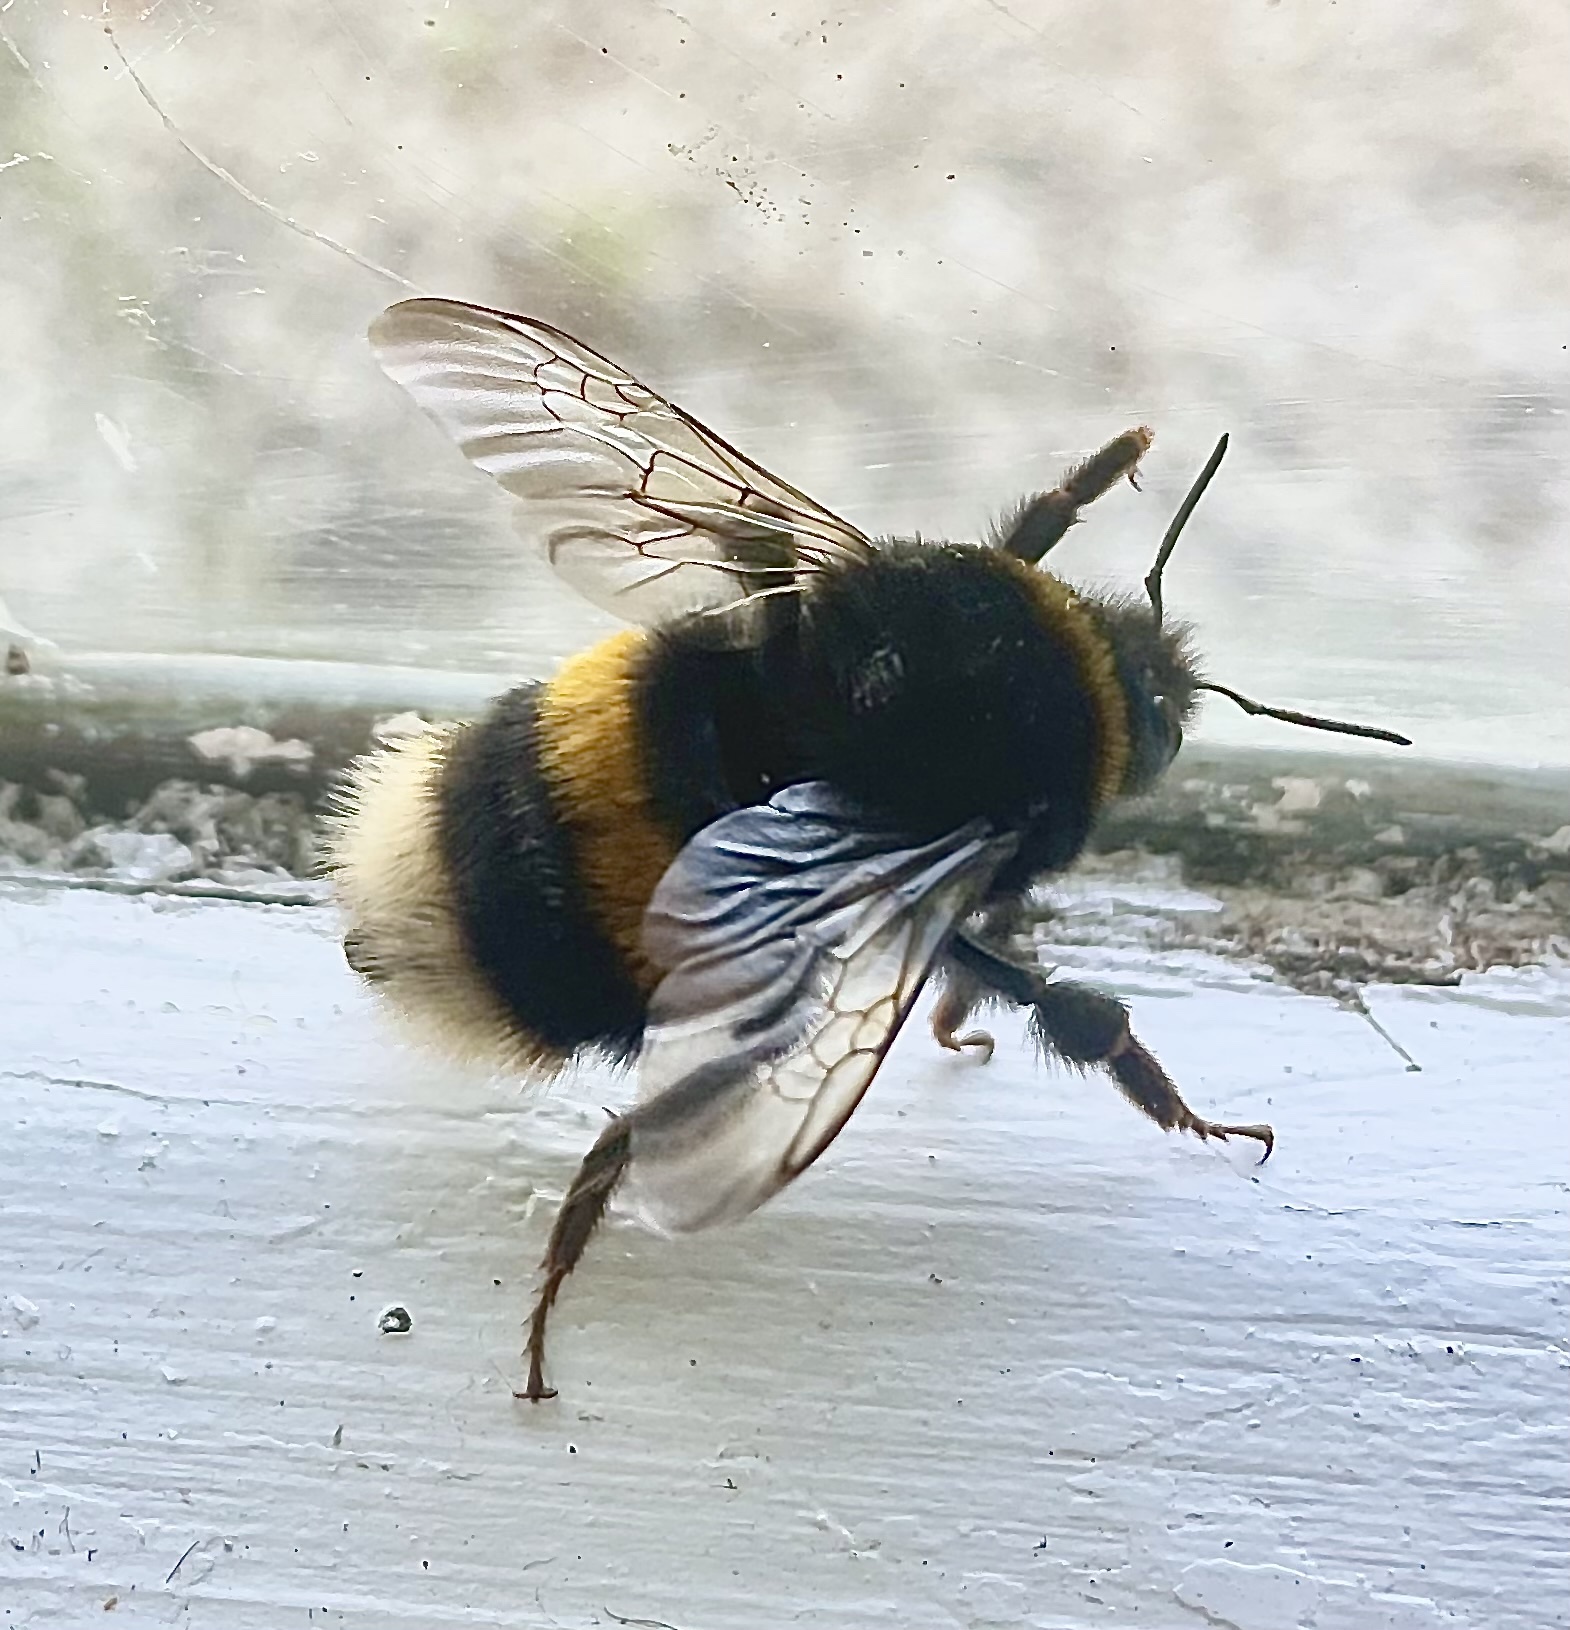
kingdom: Animalia
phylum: Arthropoda
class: Insecta
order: Hymenoptera
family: Apidae
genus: Bombus
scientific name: Bombus terrestris
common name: Buff-tailed bumblebee
